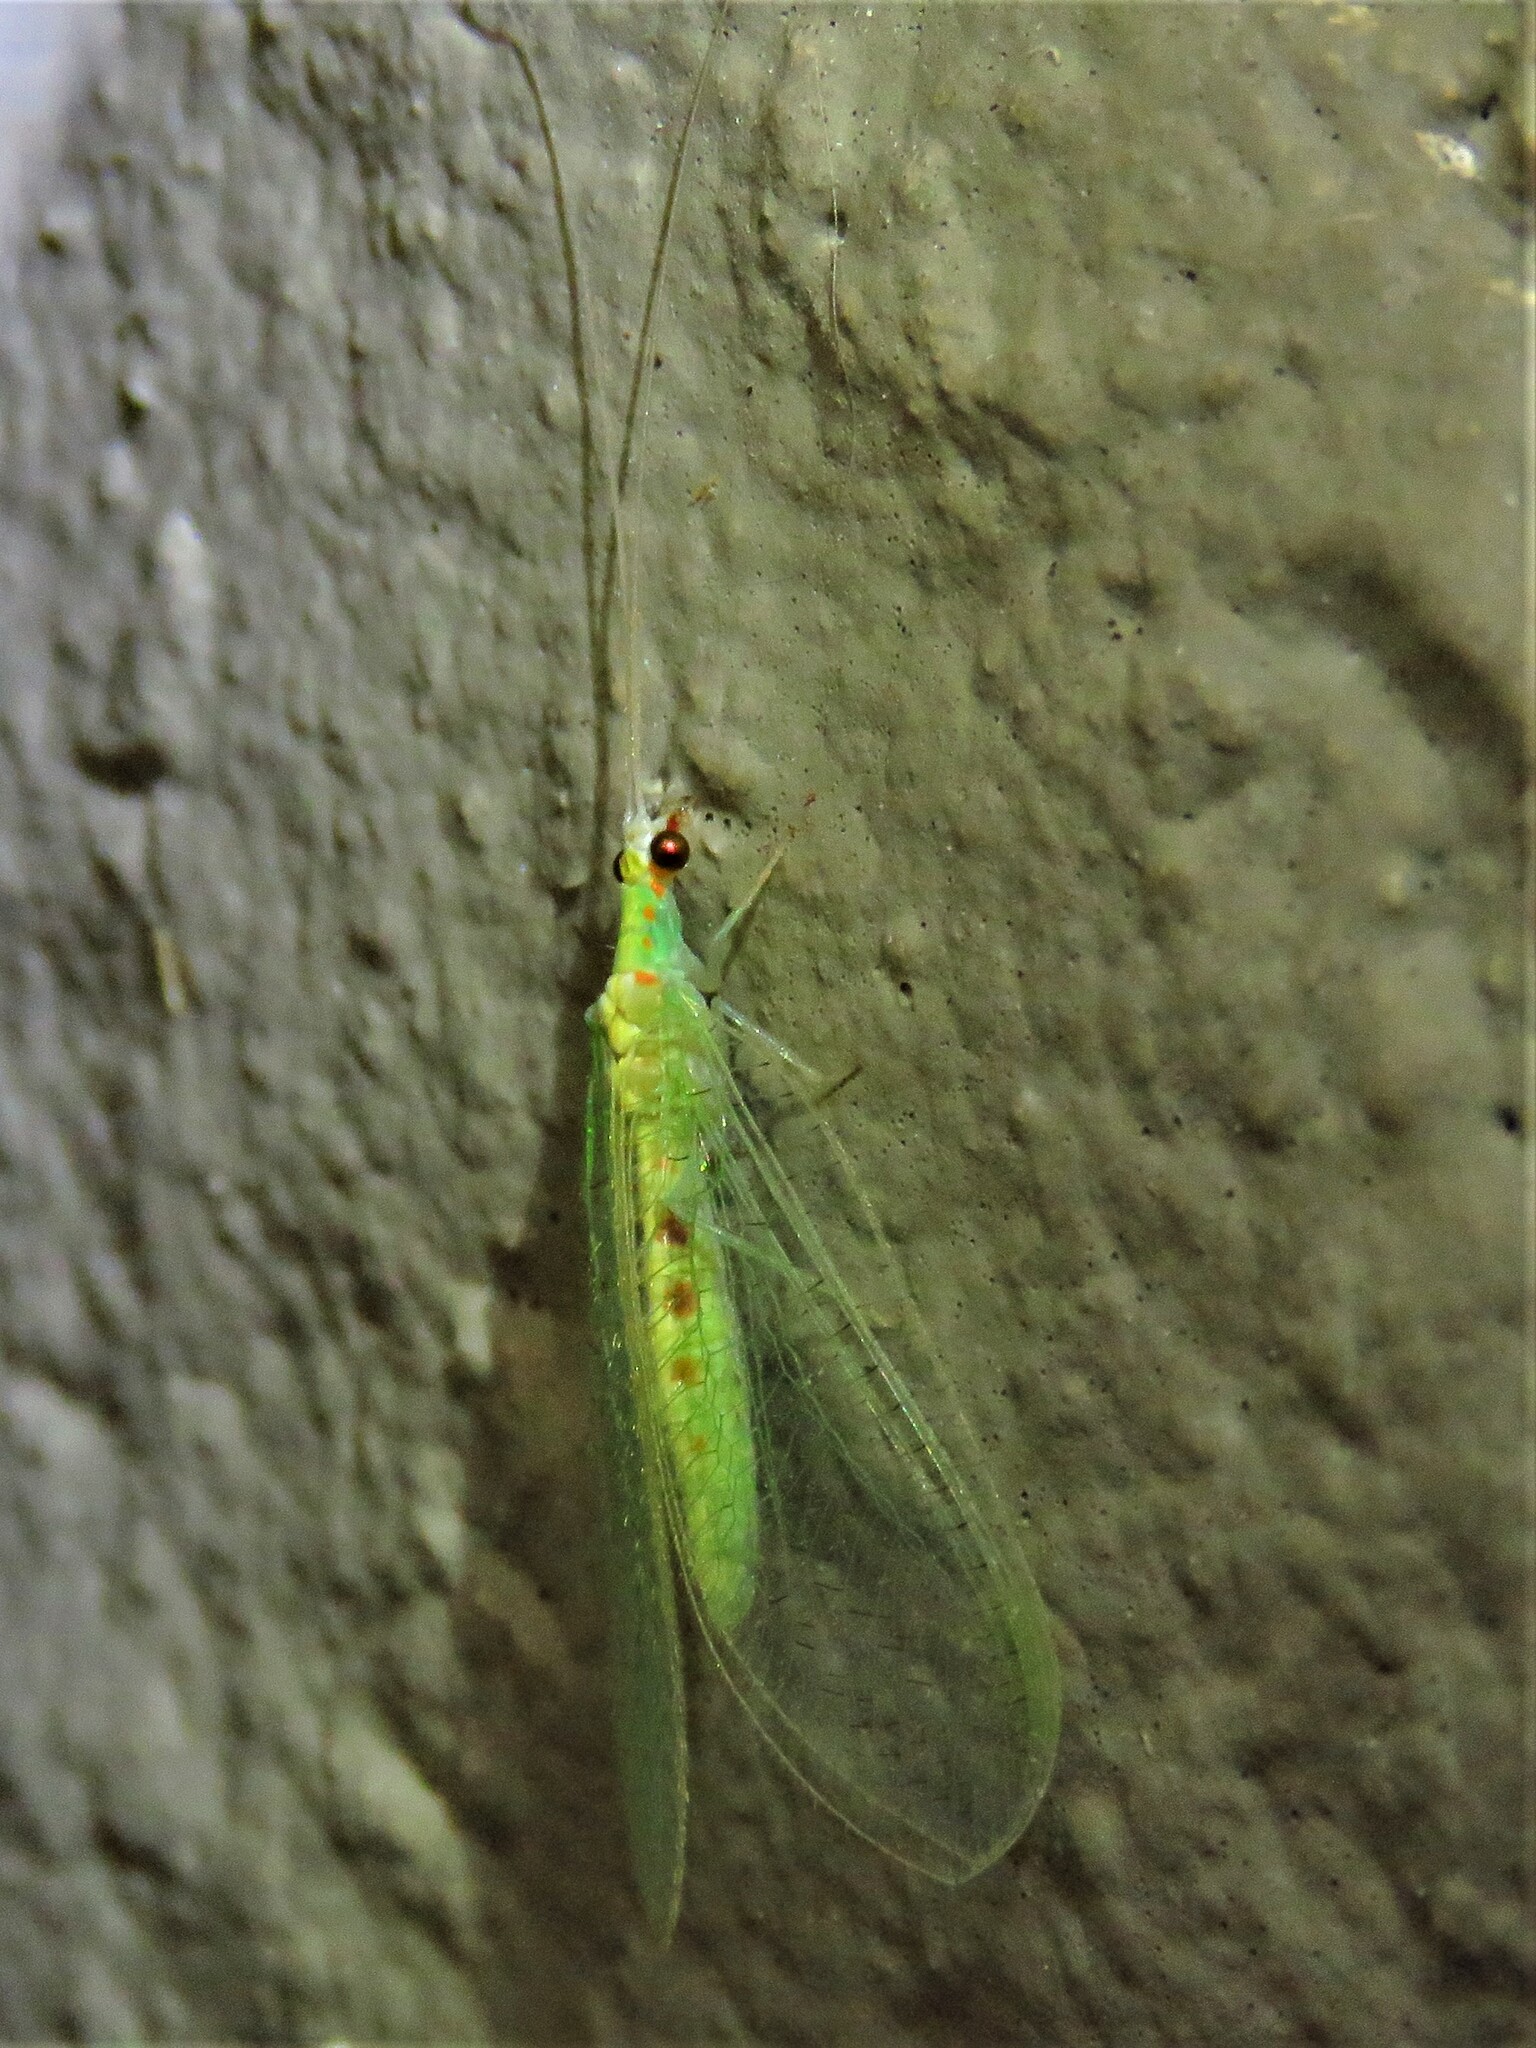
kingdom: Animalia
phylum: Arthropoda
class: Insecta
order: Neuroptera
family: Chrysopidae
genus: Chrysopa
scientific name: Chrysopa quadripunctata
